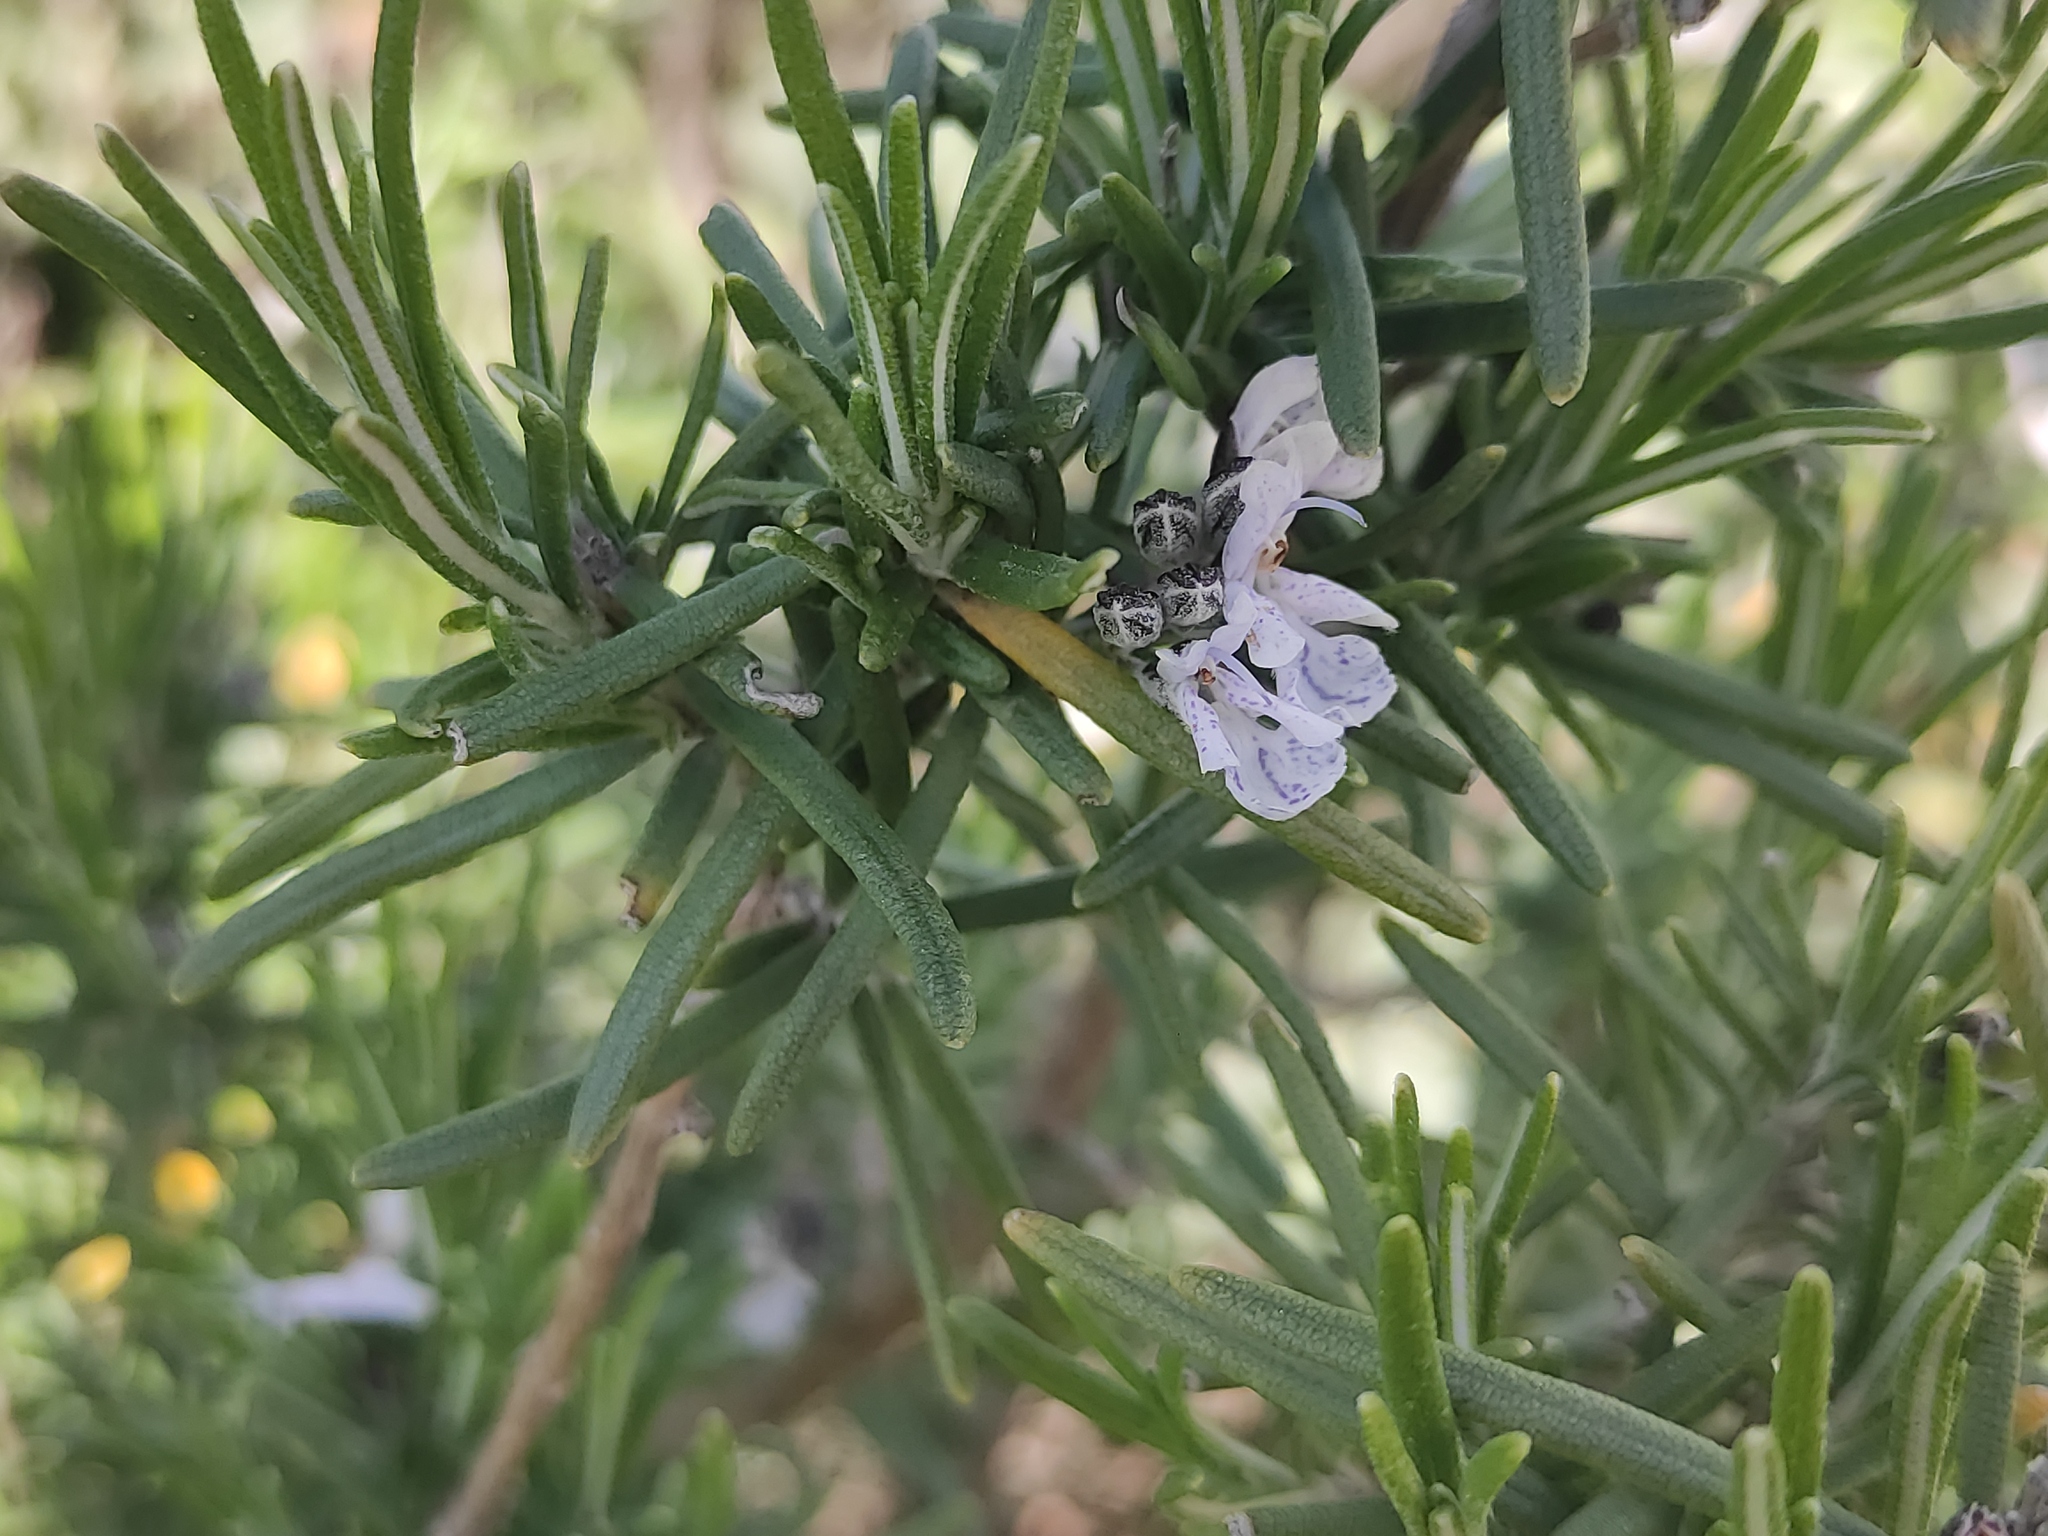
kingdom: Plantae
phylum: Tracheophyta
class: Magnoliopsida
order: Lamiales
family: Lamiaceae
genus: Salvia
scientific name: Salvia rosmarinus
